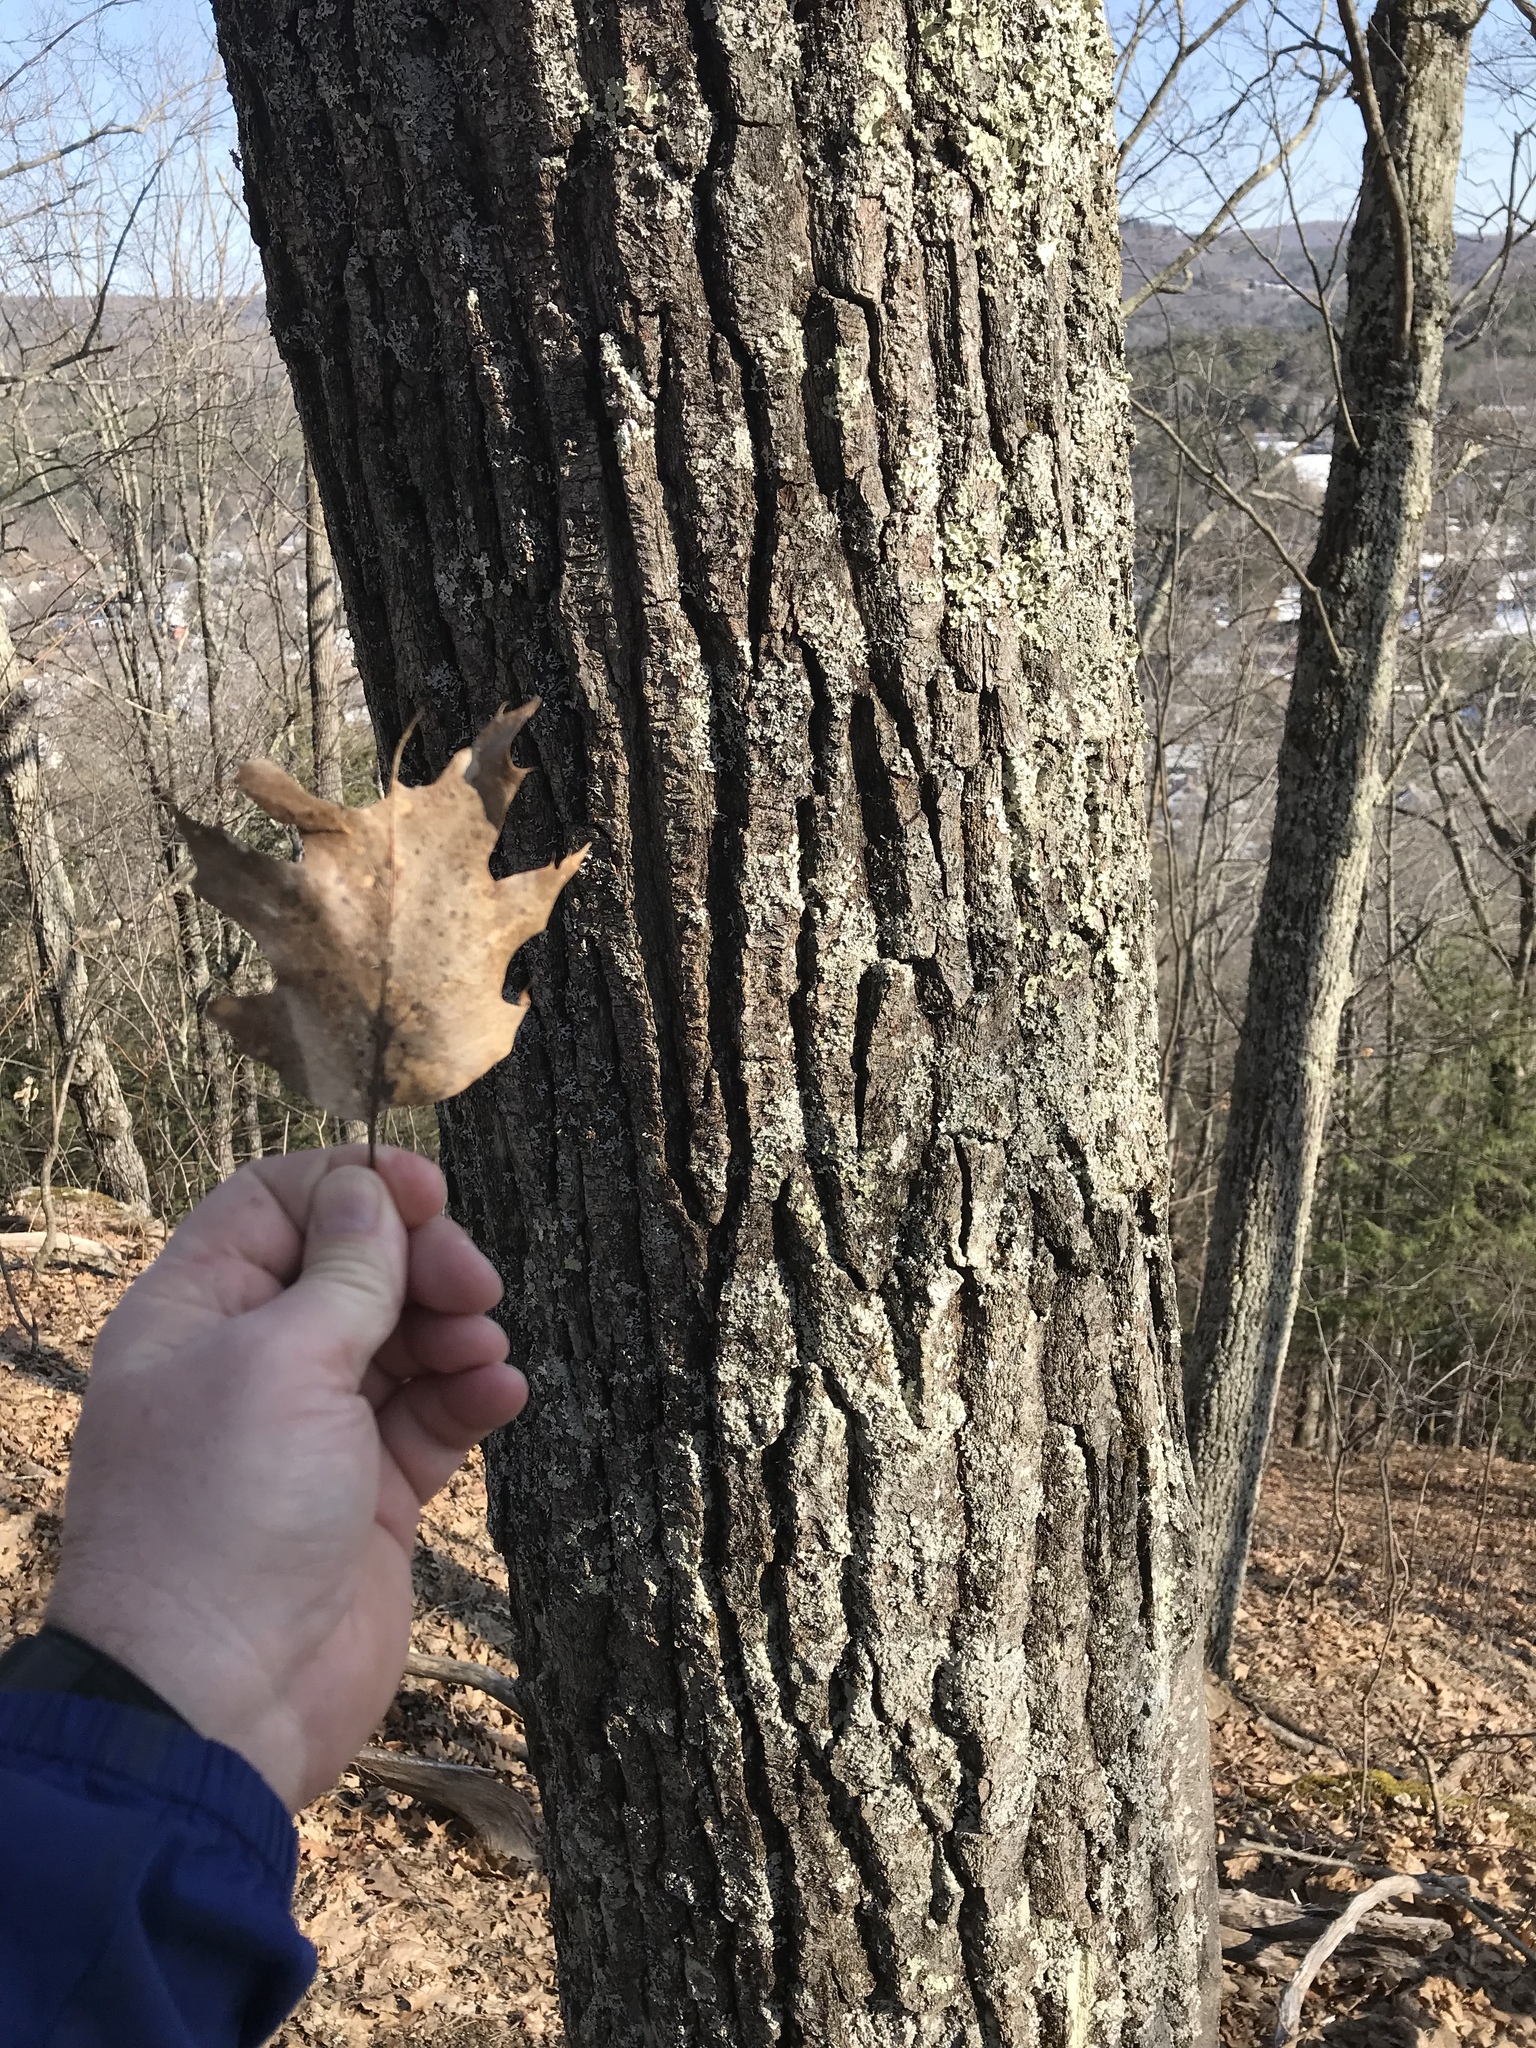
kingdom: Plantae
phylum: Tracheophyta
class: Magnoliopsida
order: Fagales
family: Fagaceae
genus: Quercus
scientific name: Quercus rubra
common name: Red oak
